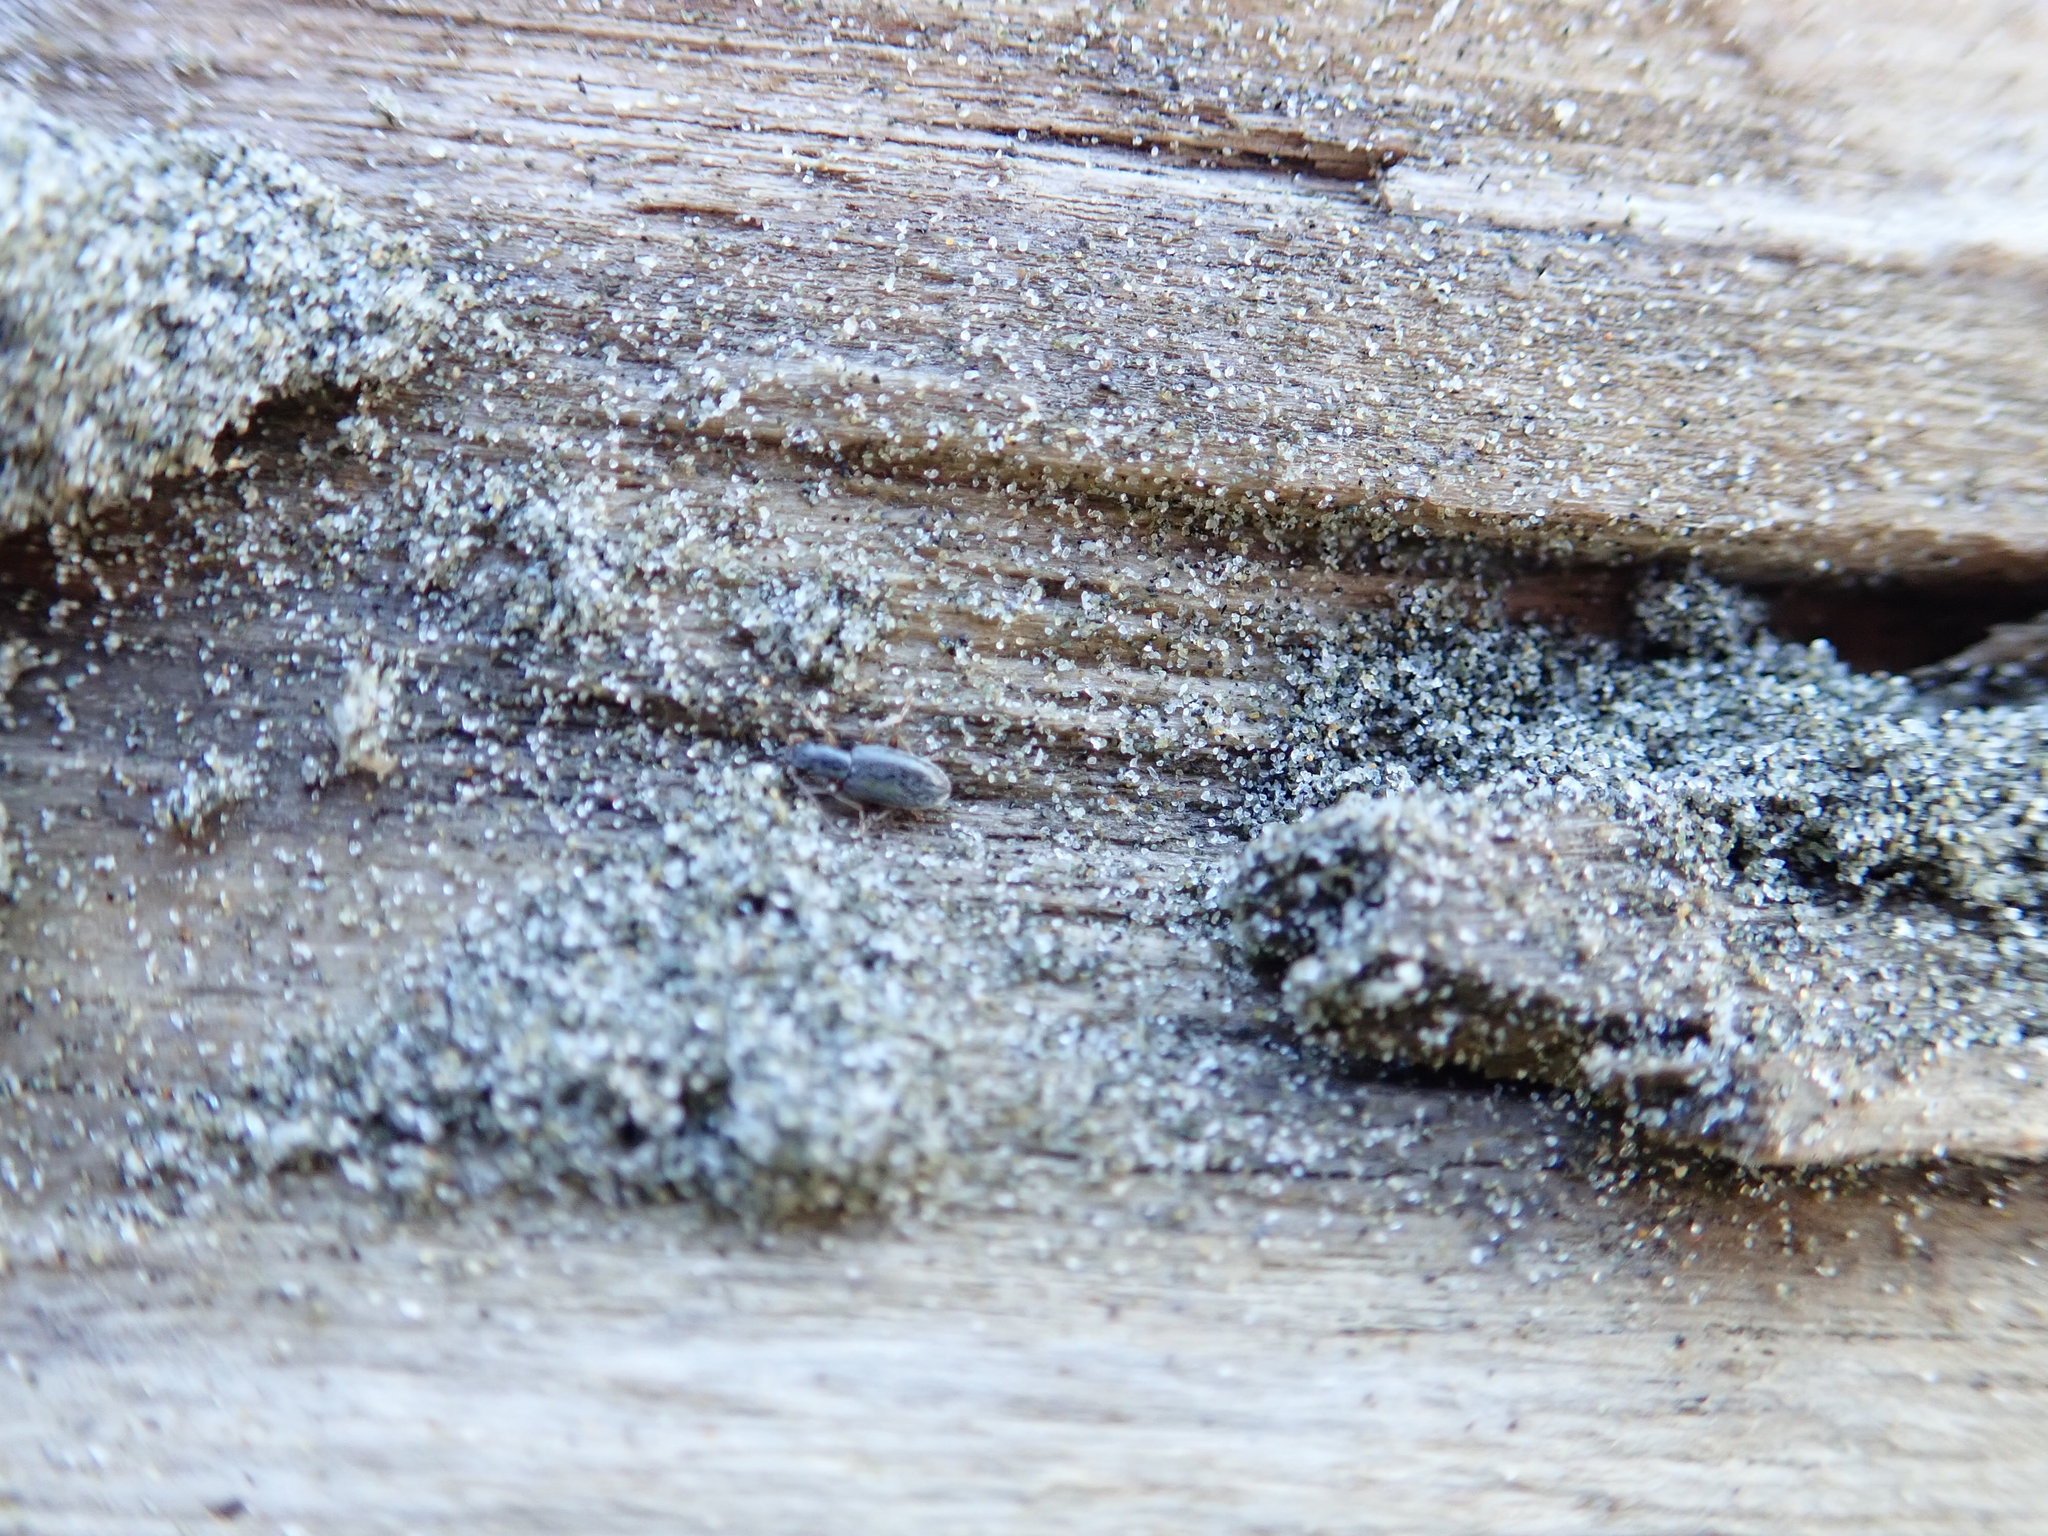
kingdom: Animalia
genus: Lagrioda
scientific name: Lagrioda brounii
